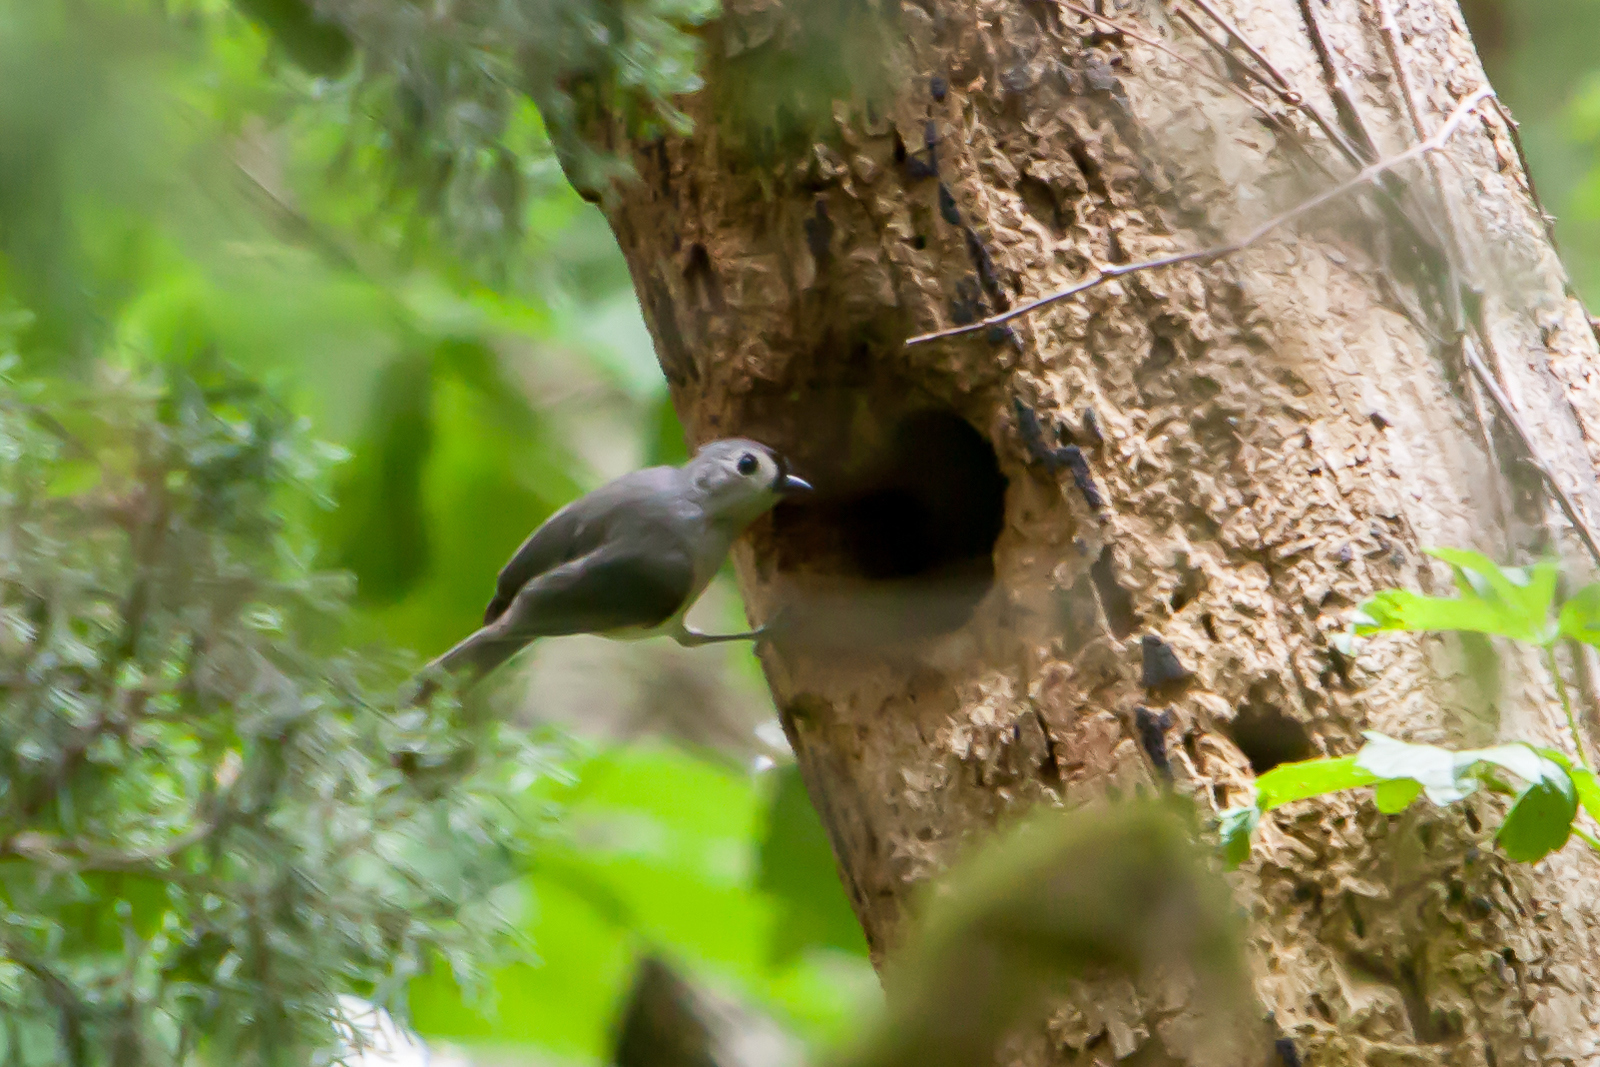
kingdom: Animalia
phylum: Chordata
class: Aves
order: Passeriformes
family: Paridae
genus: Baeolophus
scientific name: Baeolophus bicolor
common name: Tufted titmouse
